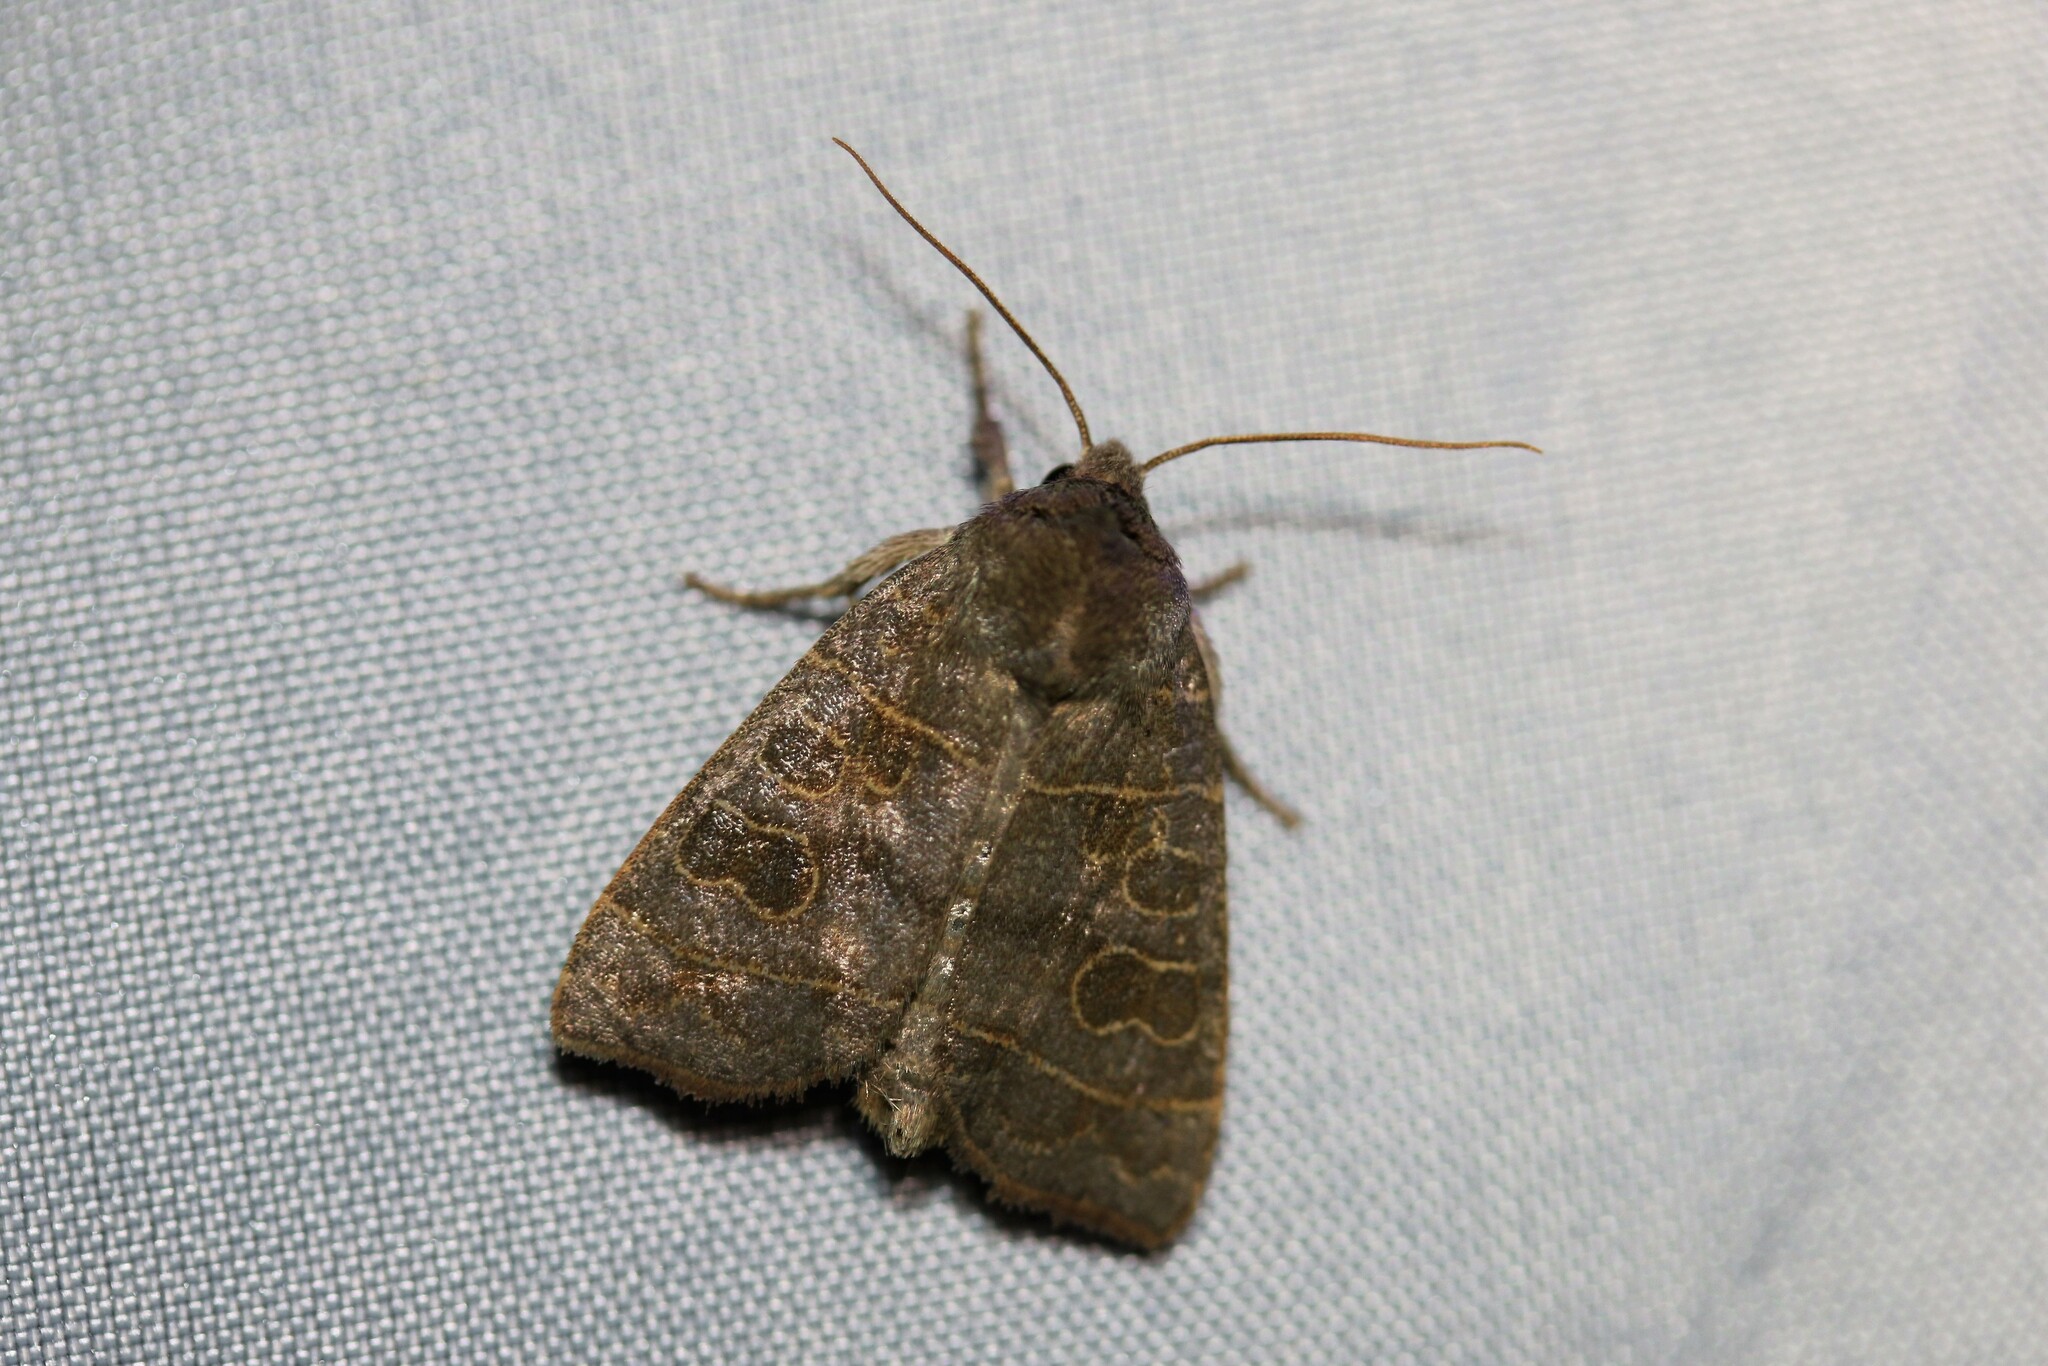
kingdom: Animalia
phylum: Arthropoda
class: Insecta
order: Lepidoptera
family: Noctuidae
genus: Ipimorpha
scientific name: Ipimorpha subtusa
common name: Olive
